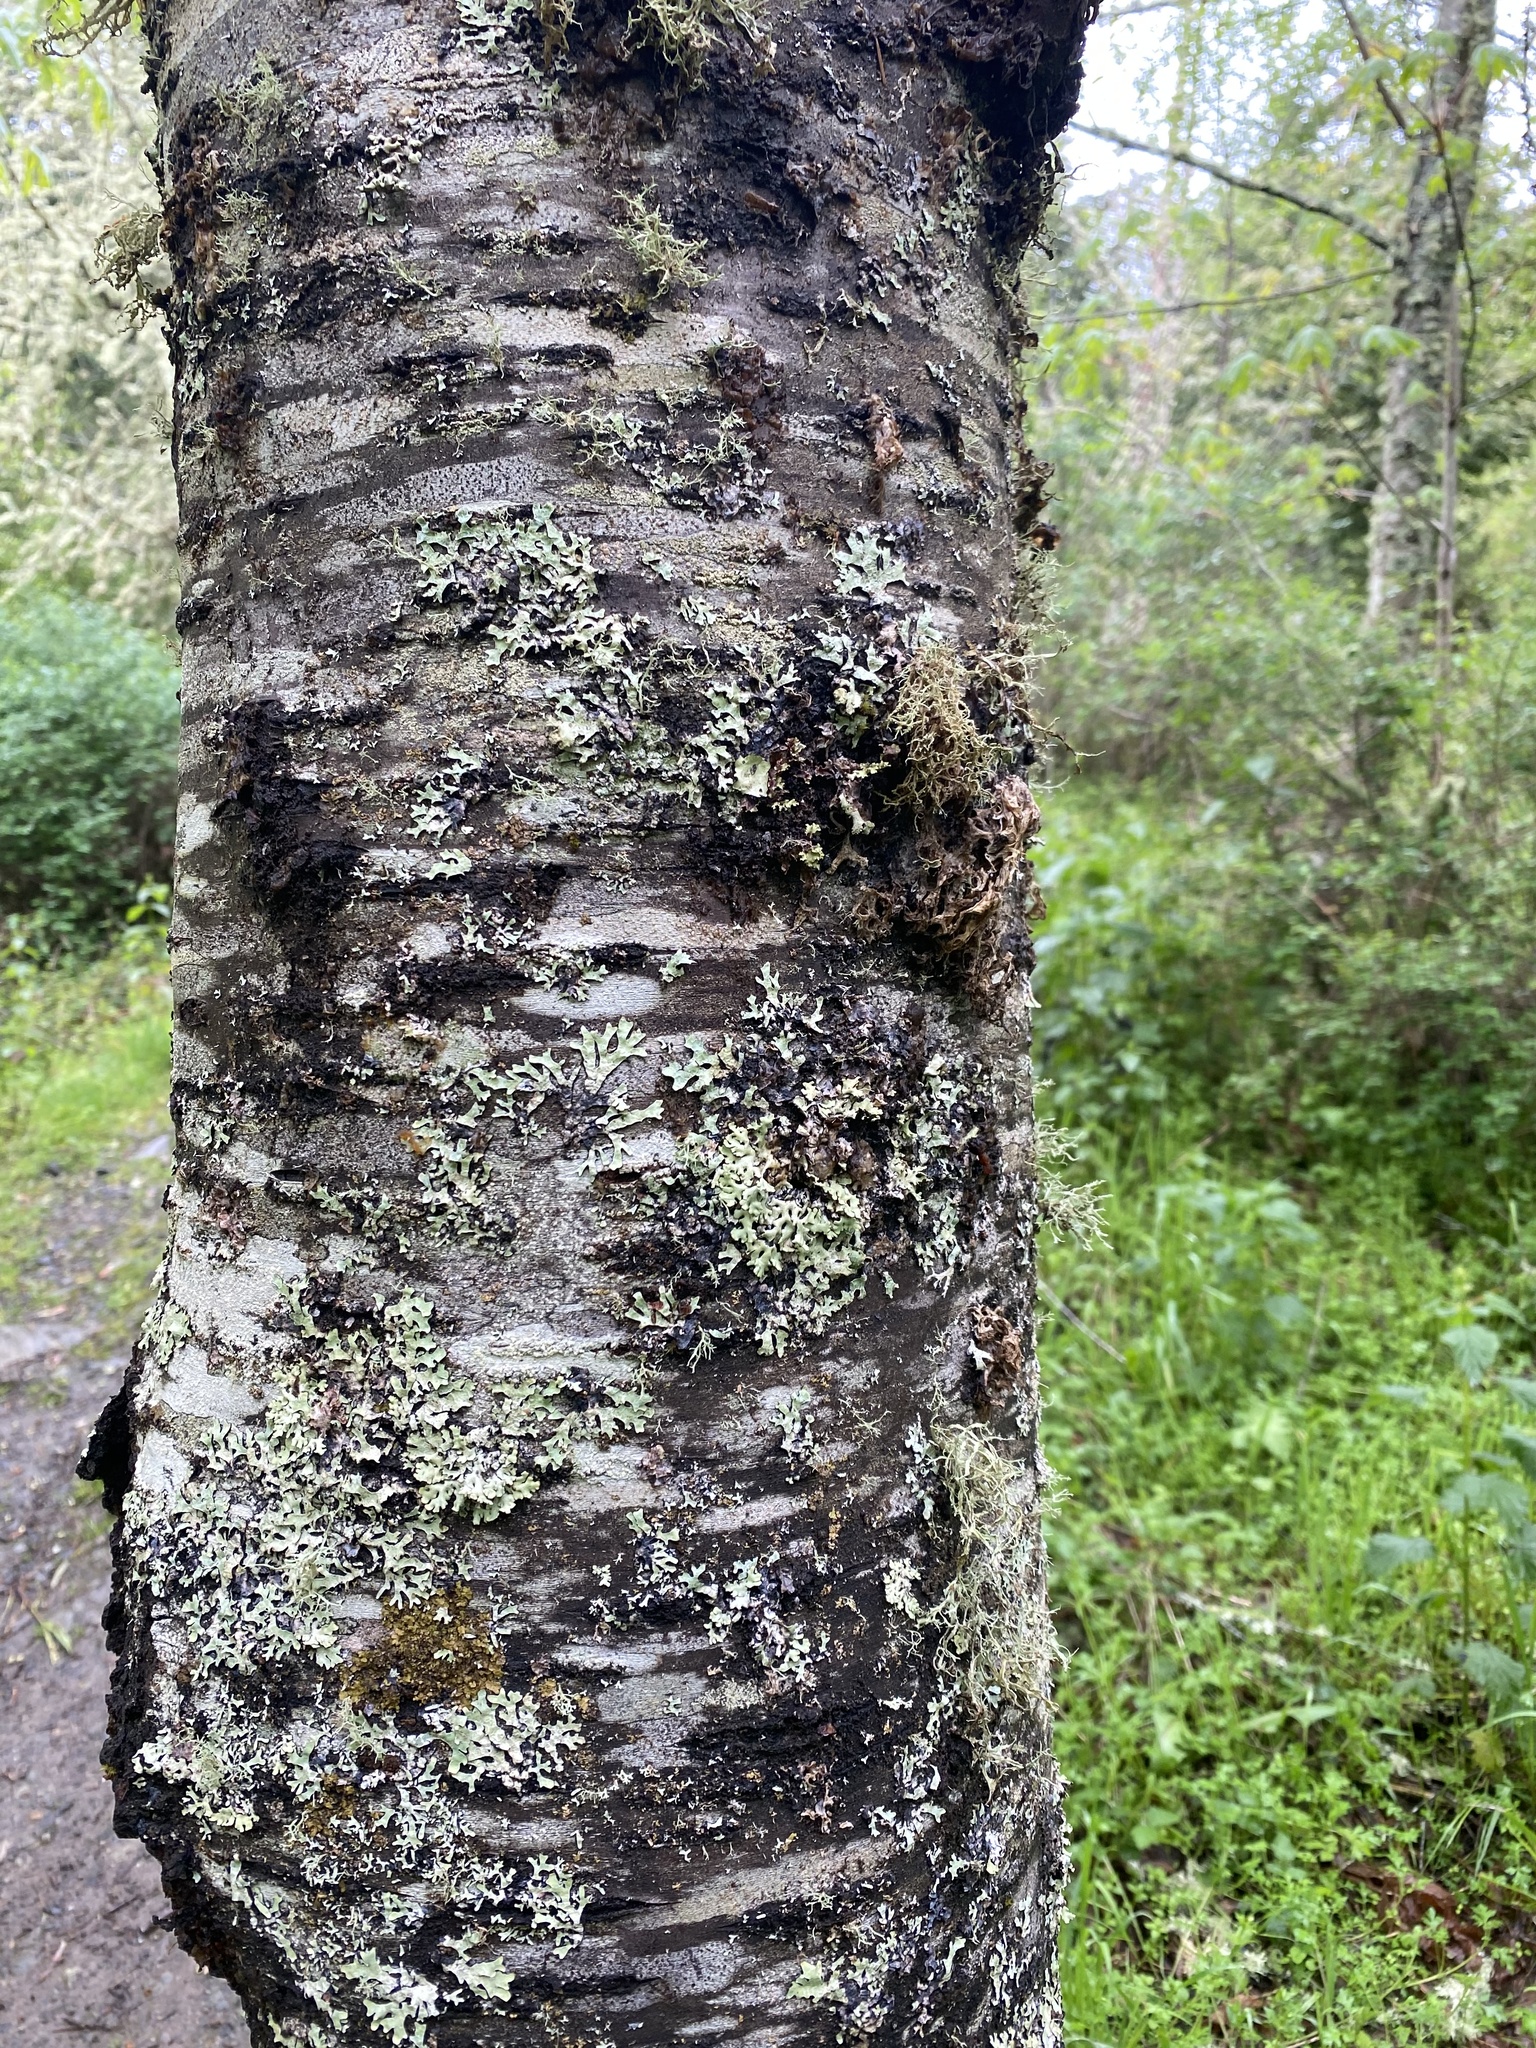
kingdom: Plantae
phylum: Tracheophyta
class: Magnoliopsida
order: Sapindales
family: Sapindaceae
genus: Acer
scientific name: Acer macrophyllum
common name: Oregon maple
